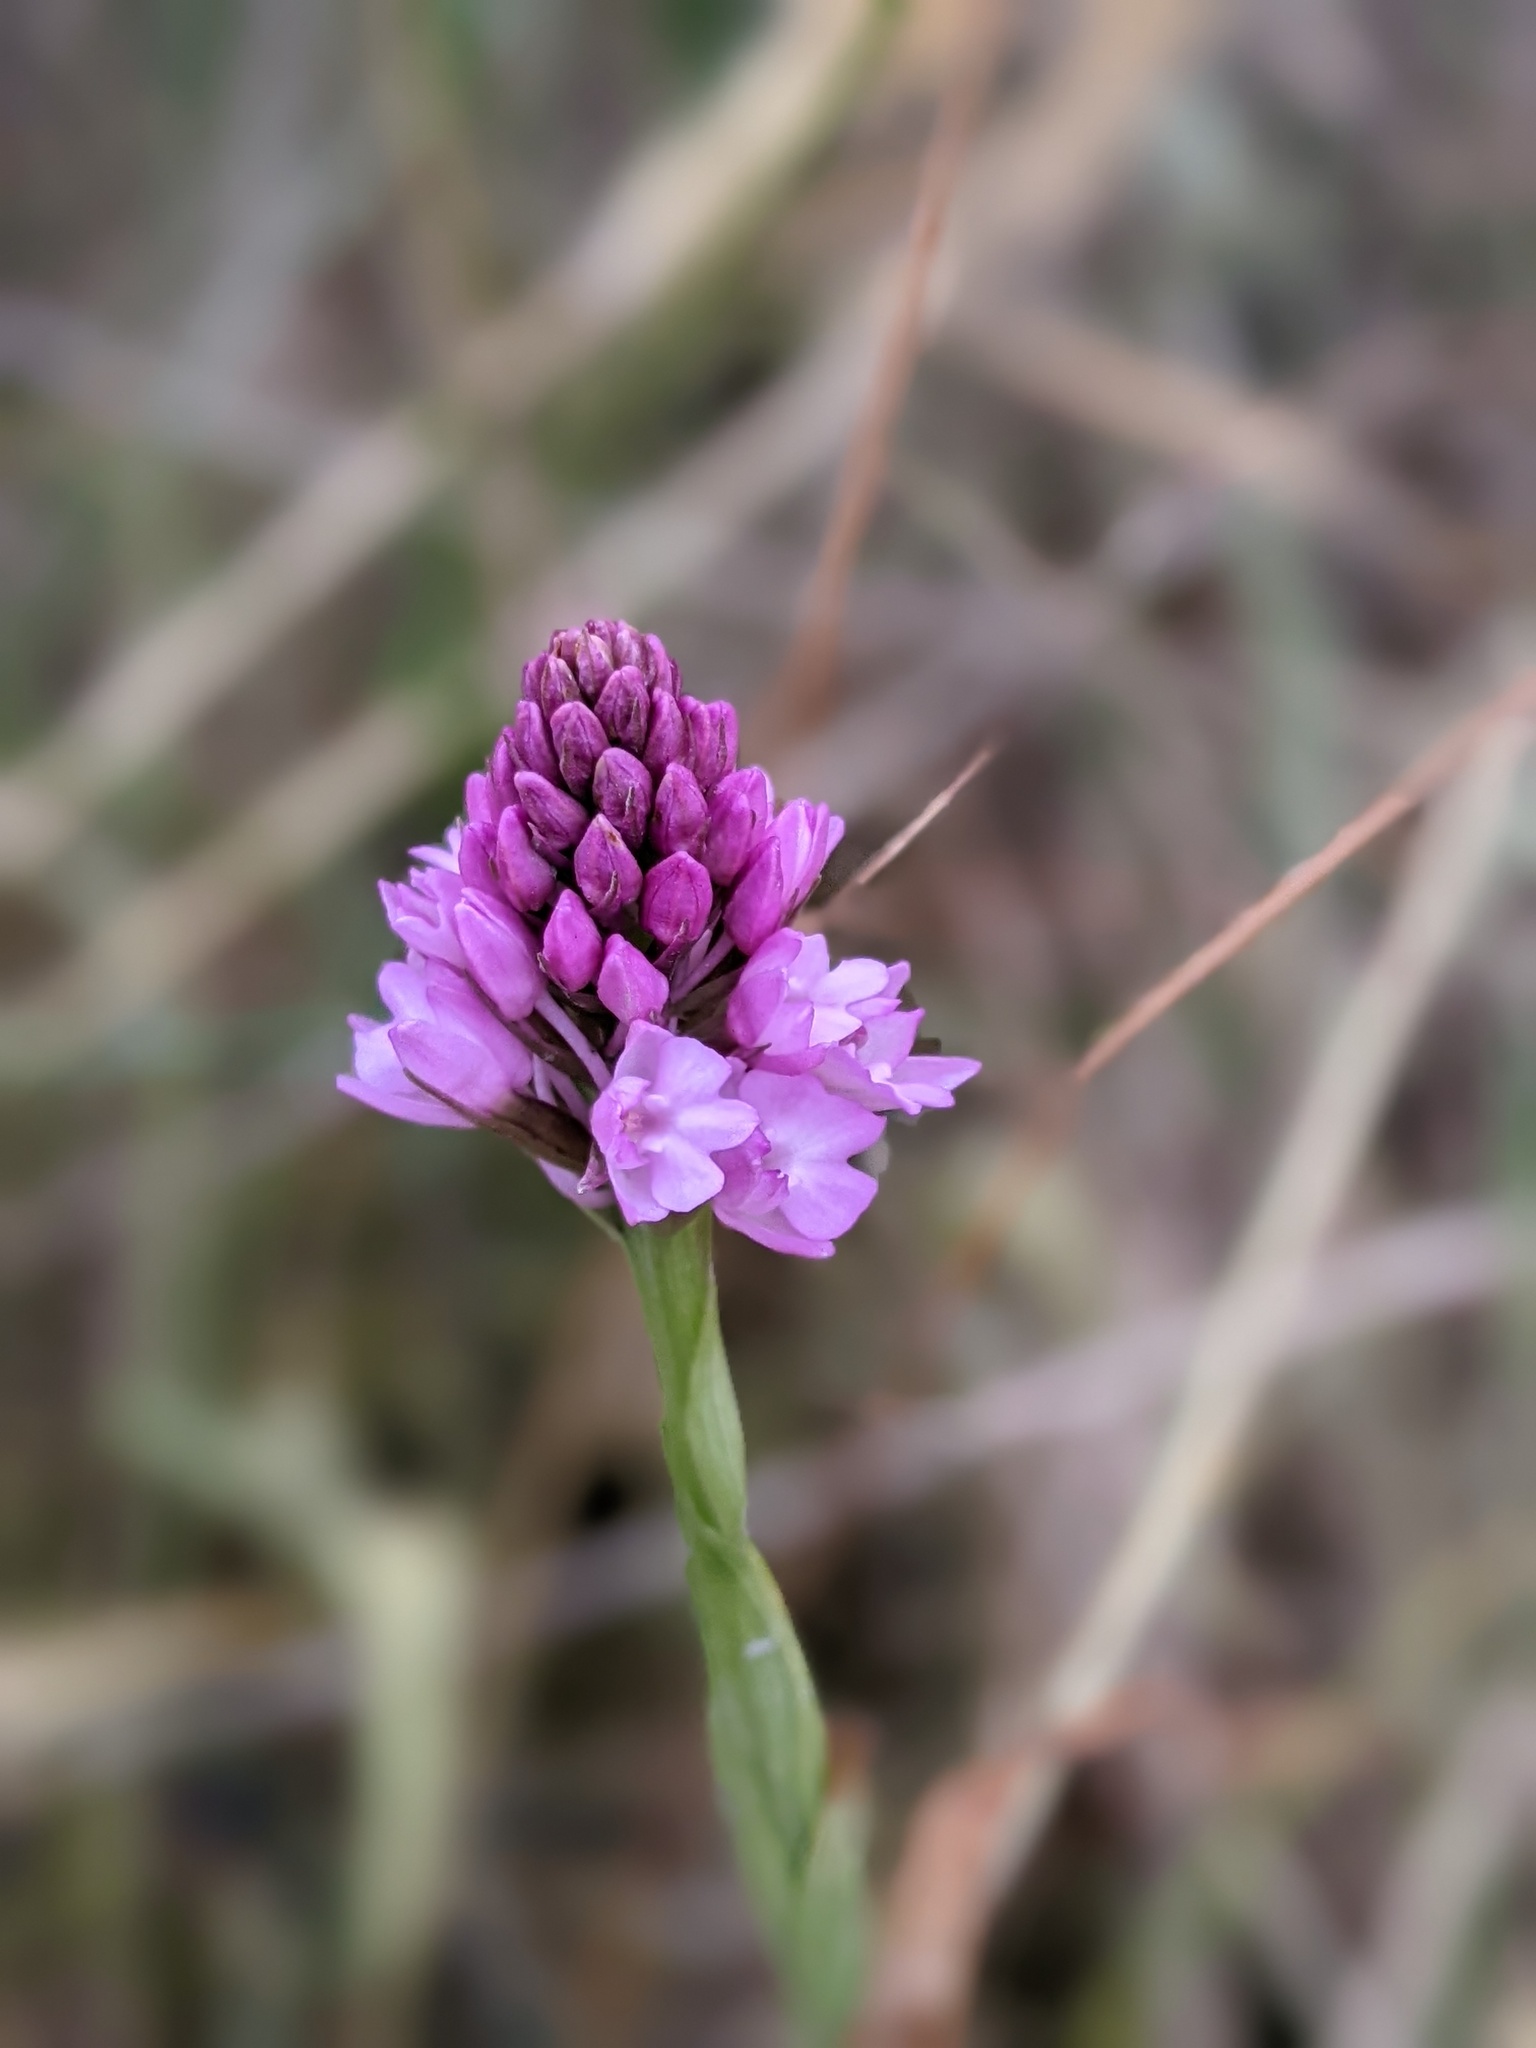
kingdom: Plantae
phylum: Tracheophyta
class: Liliopsida
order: Asparagales
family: Orchidaceae
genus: Anacamptis
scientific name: Anacamptis pyramidalis
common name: Pyramidal orchid
